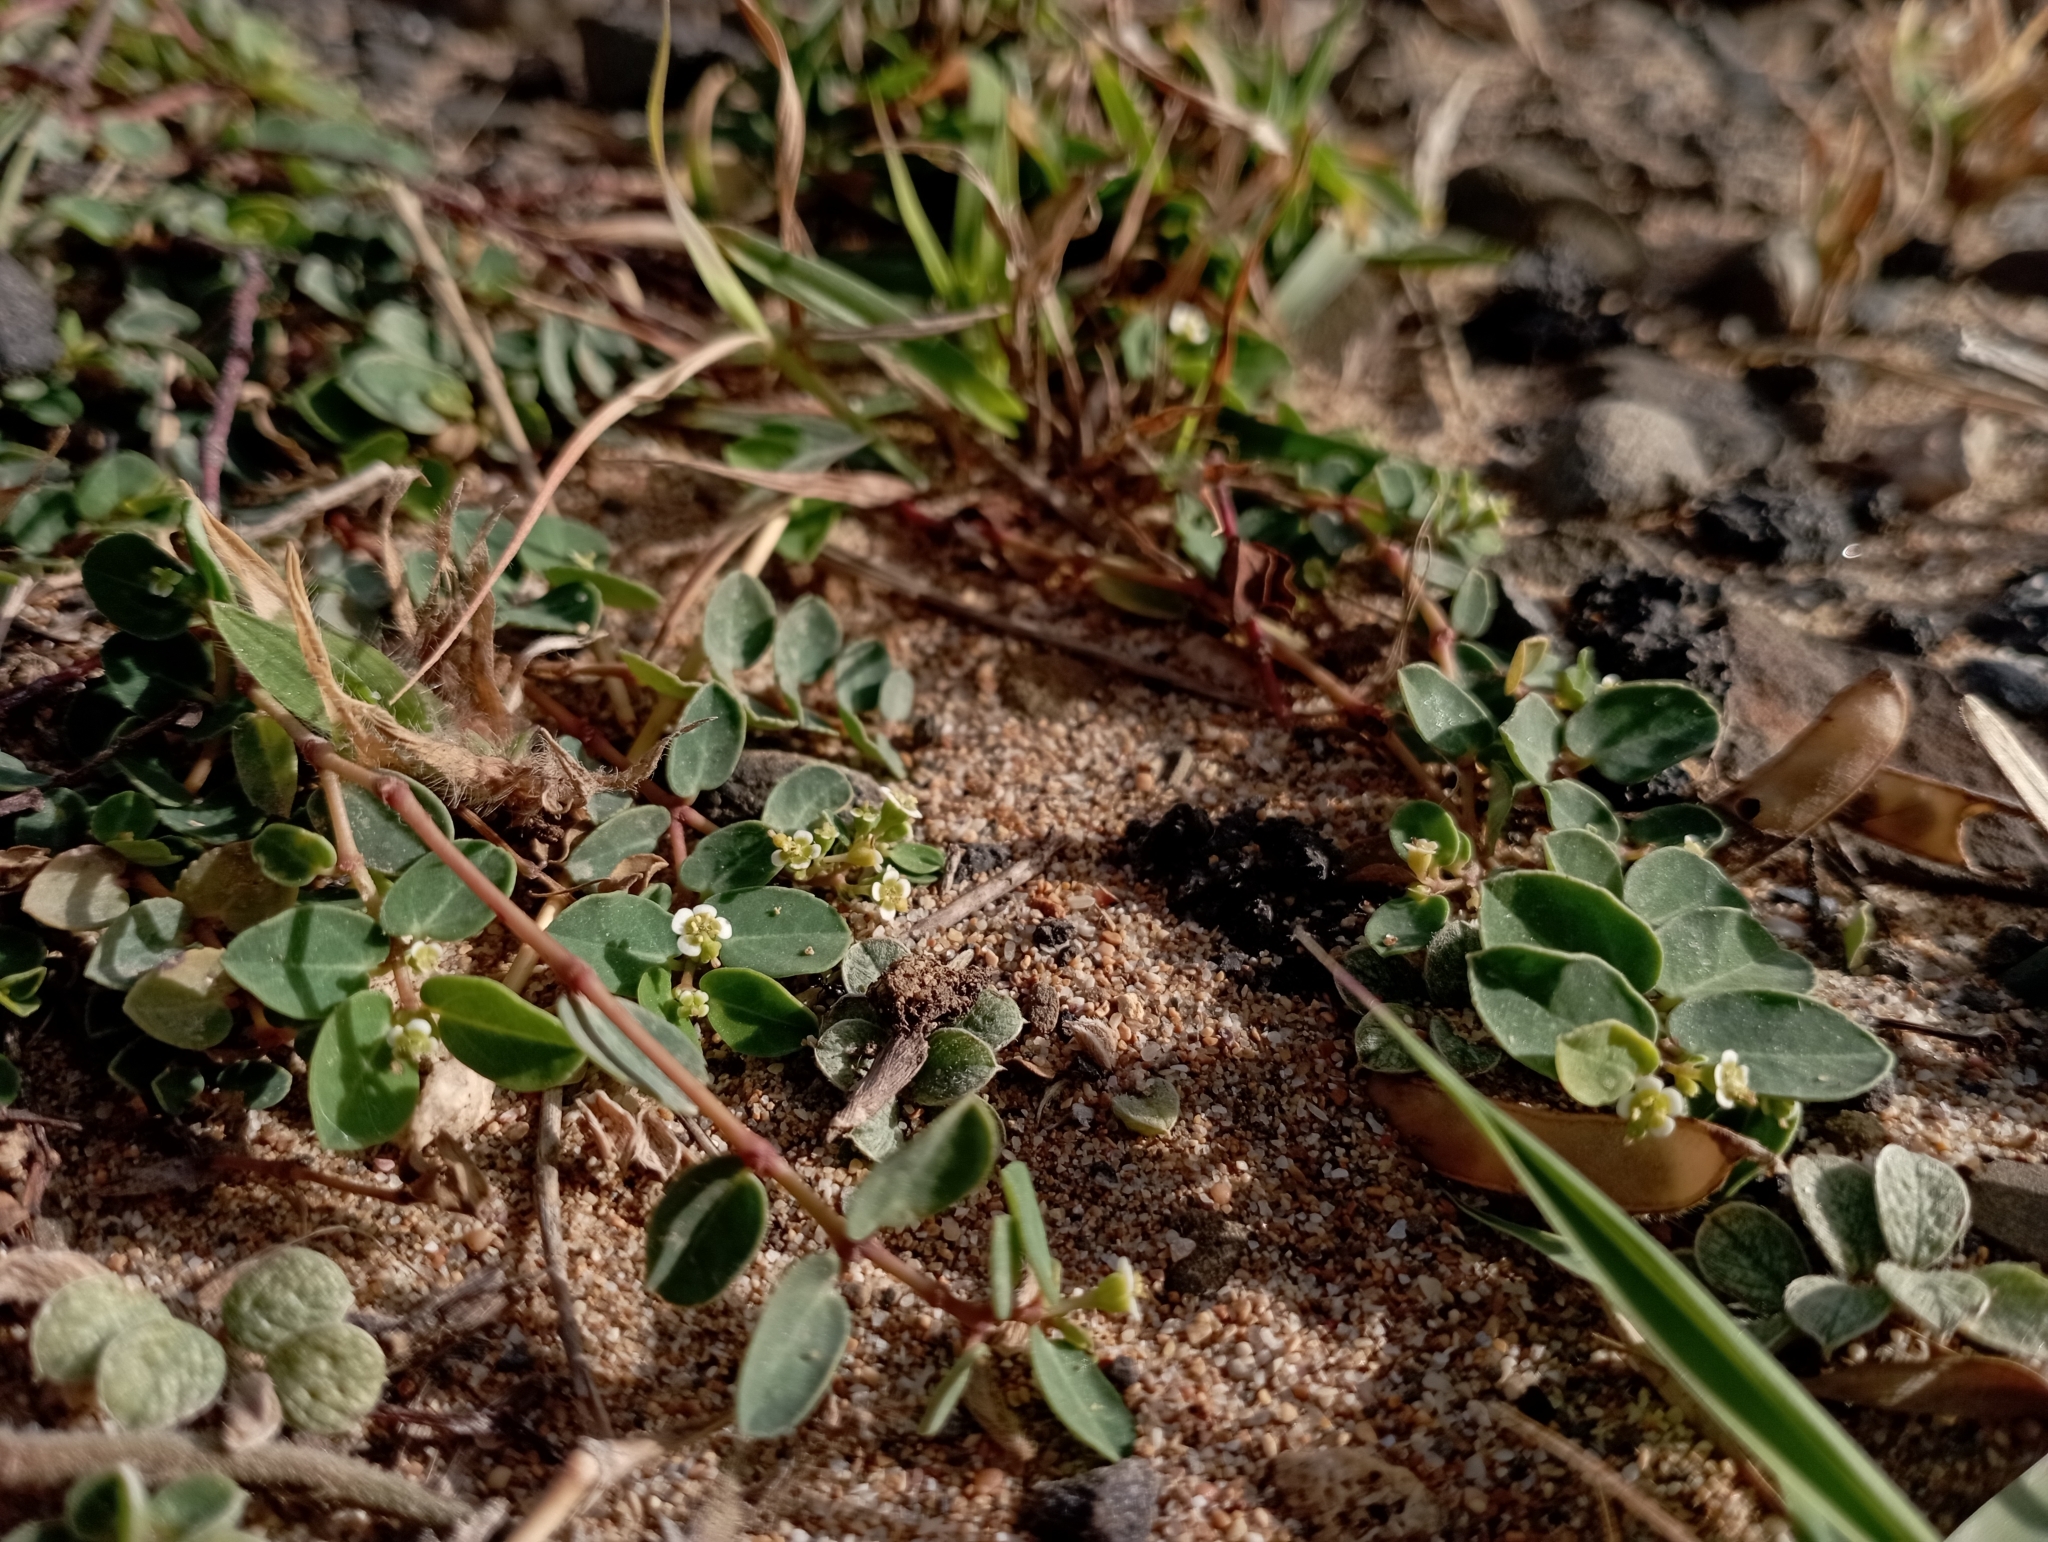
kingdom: Plantae
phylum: Tracheophyta
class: Magnoliopsida
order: Malpighiales
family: Euphorbiaceae
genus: Euphorbia
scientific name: Euphorbia garanbiensis
